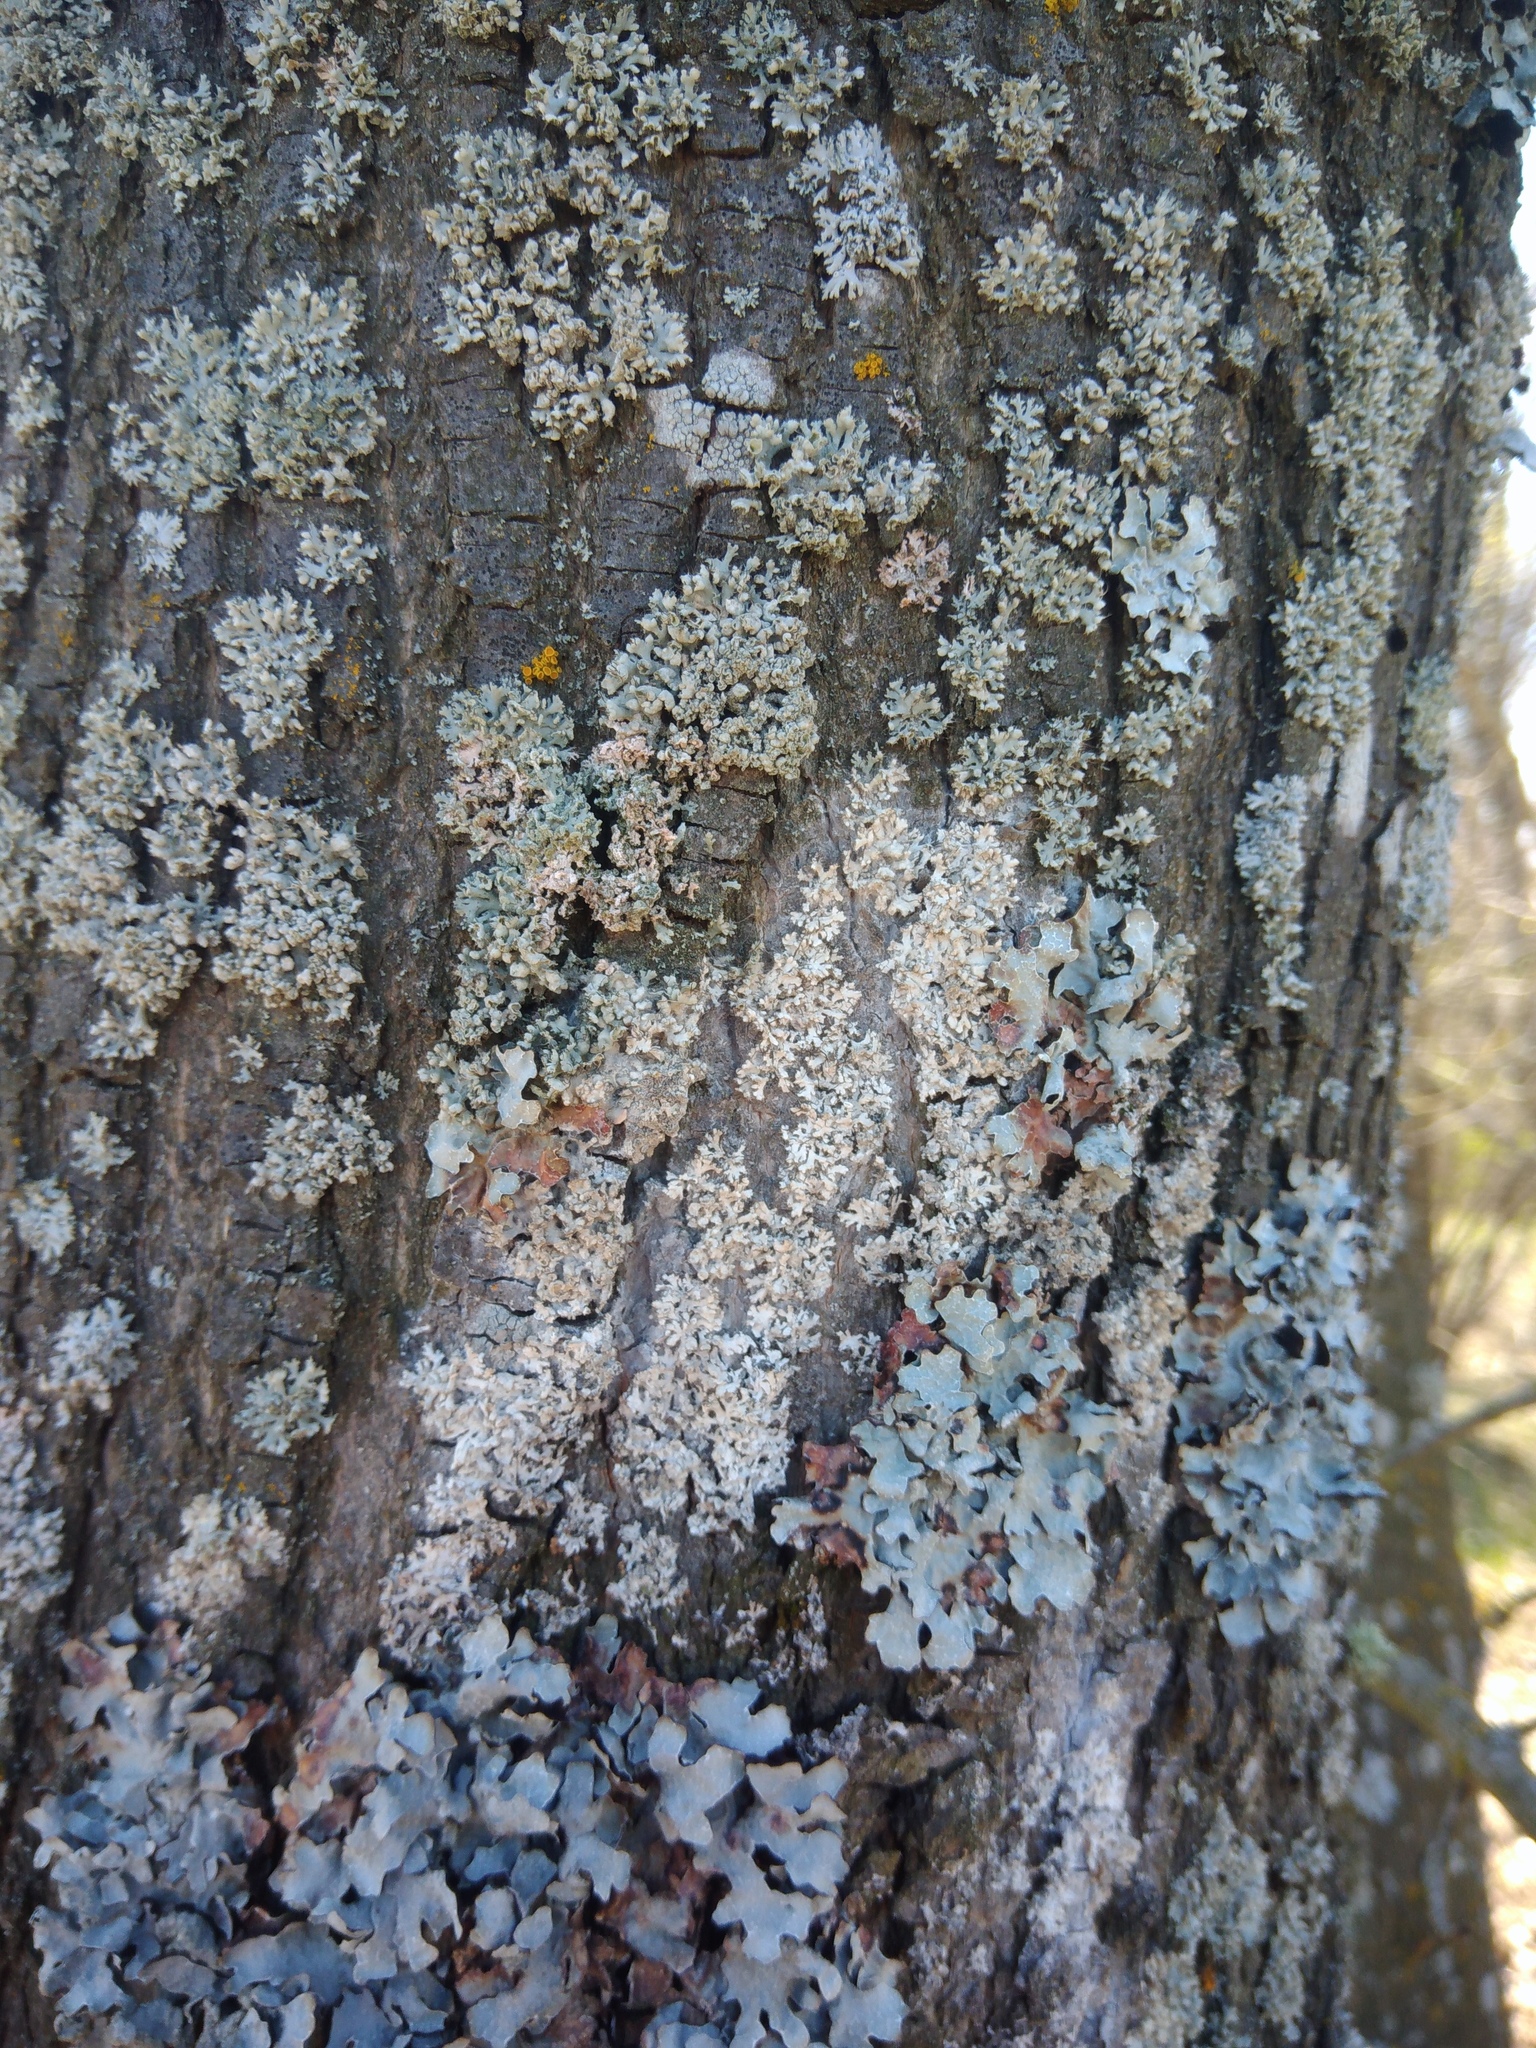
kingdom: Fungi
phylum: Basidiomycota
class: Agaricomycetes
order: Atheliales
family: Atheliaceae
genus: Athelia
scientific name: Athelia arachnoidea
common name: Candelabra duster
